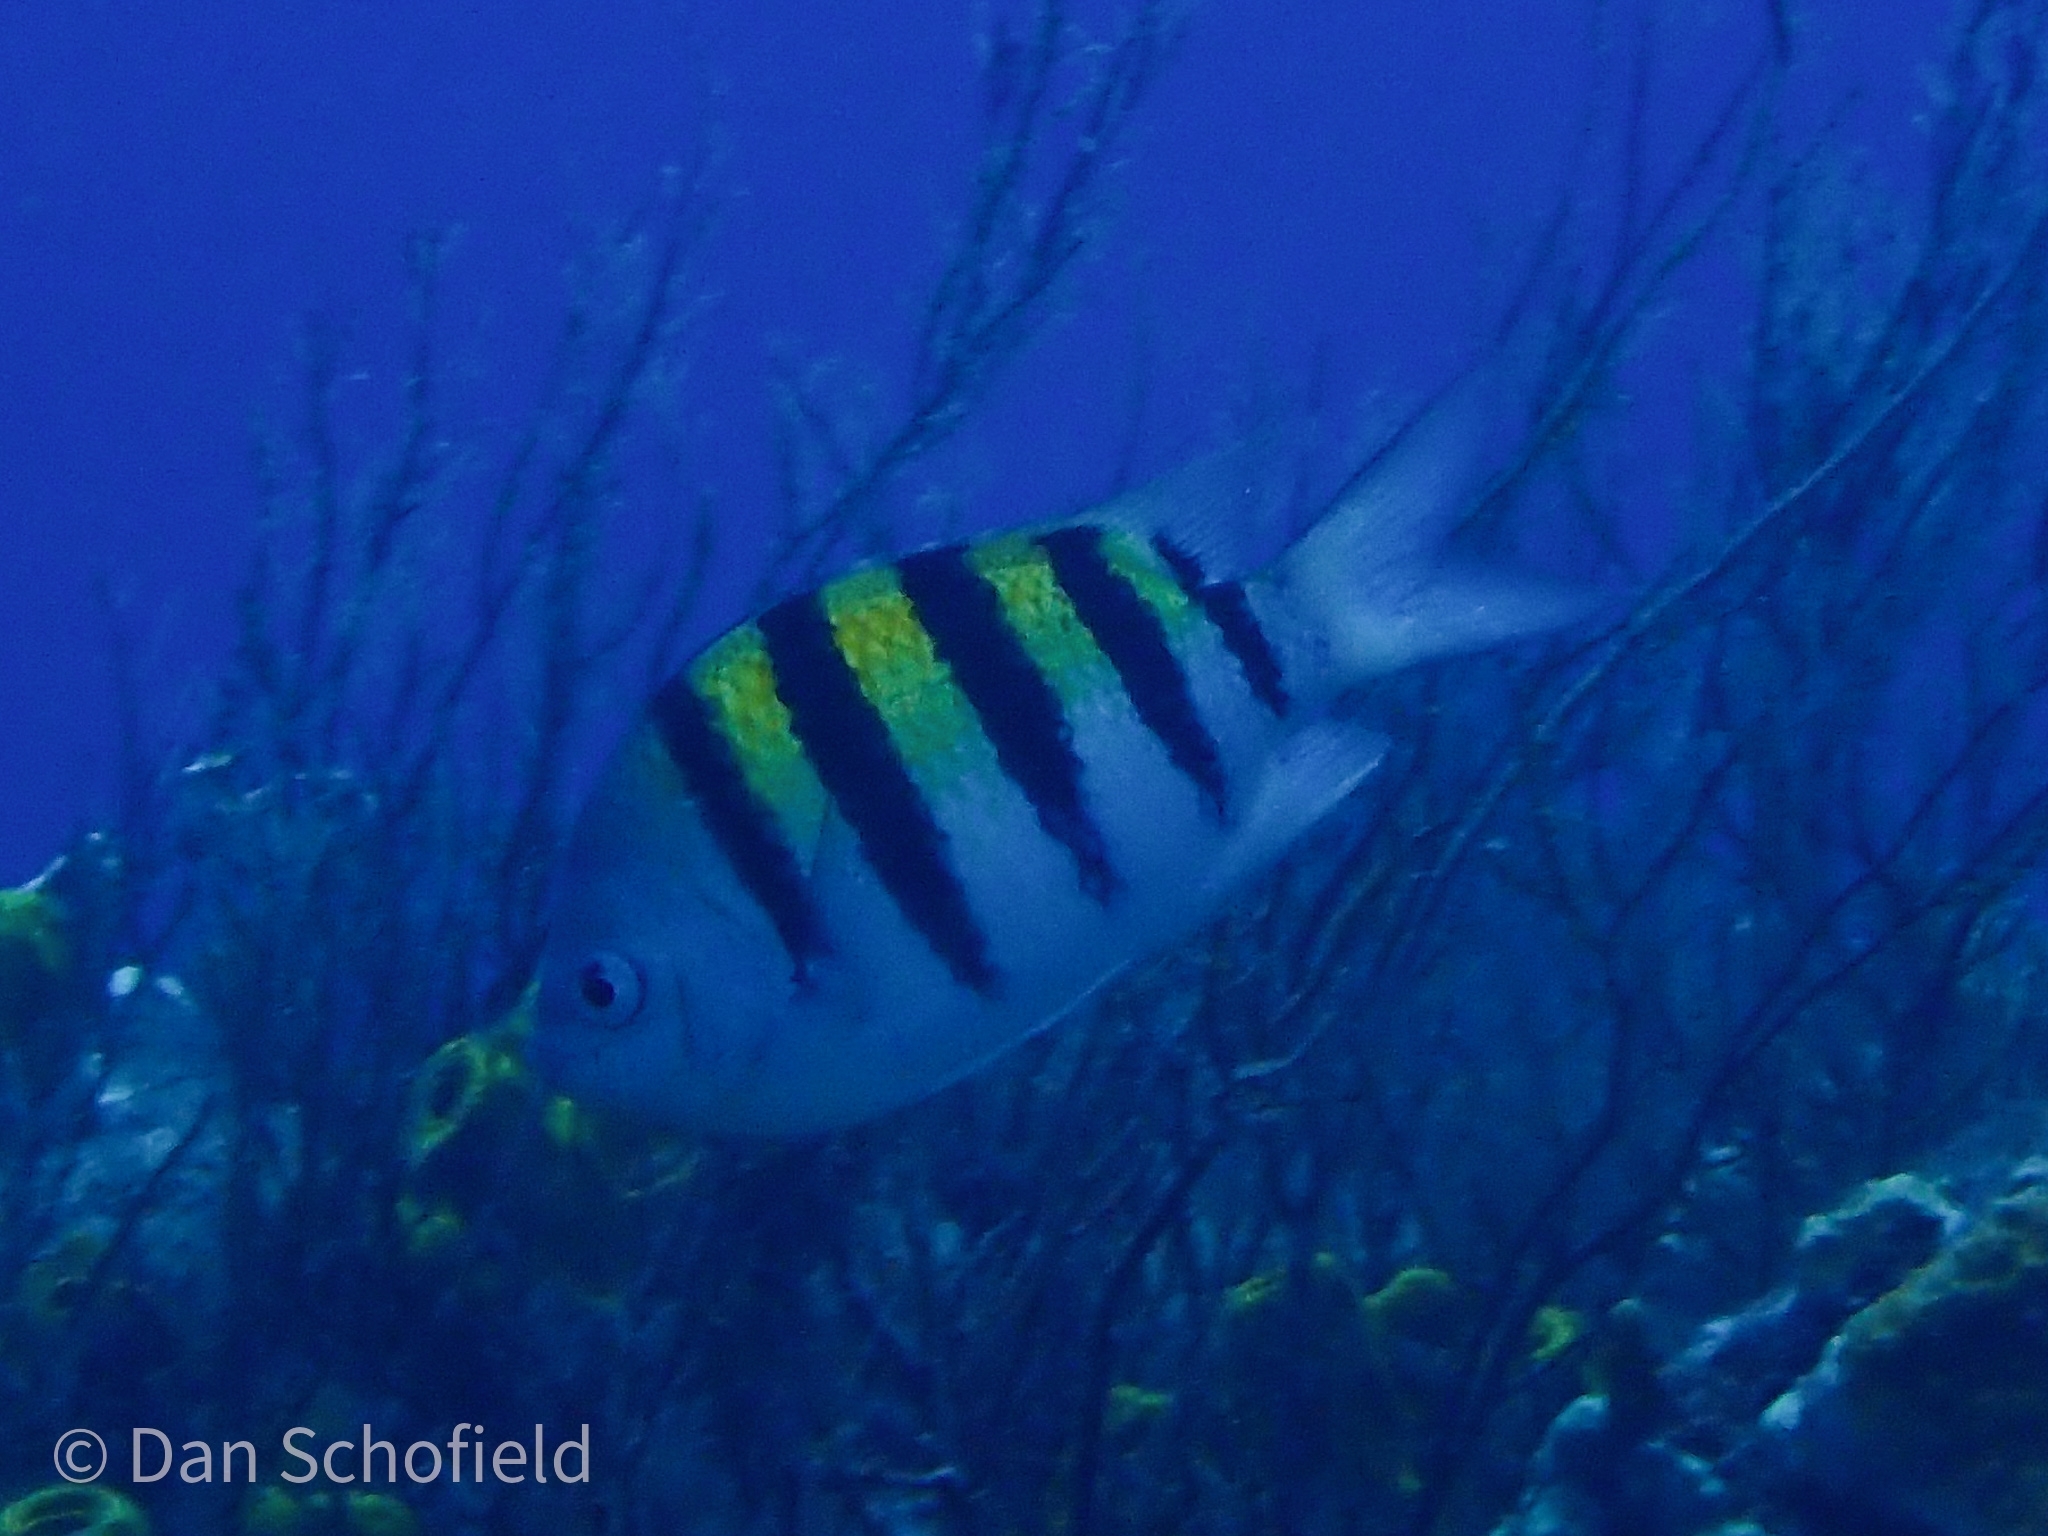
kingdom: Animalia
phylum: Chordata
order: Perciformes
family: Pomacentridae
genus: Abudefduf
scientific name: Abudefduf saxatilis
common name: Sergeant major
